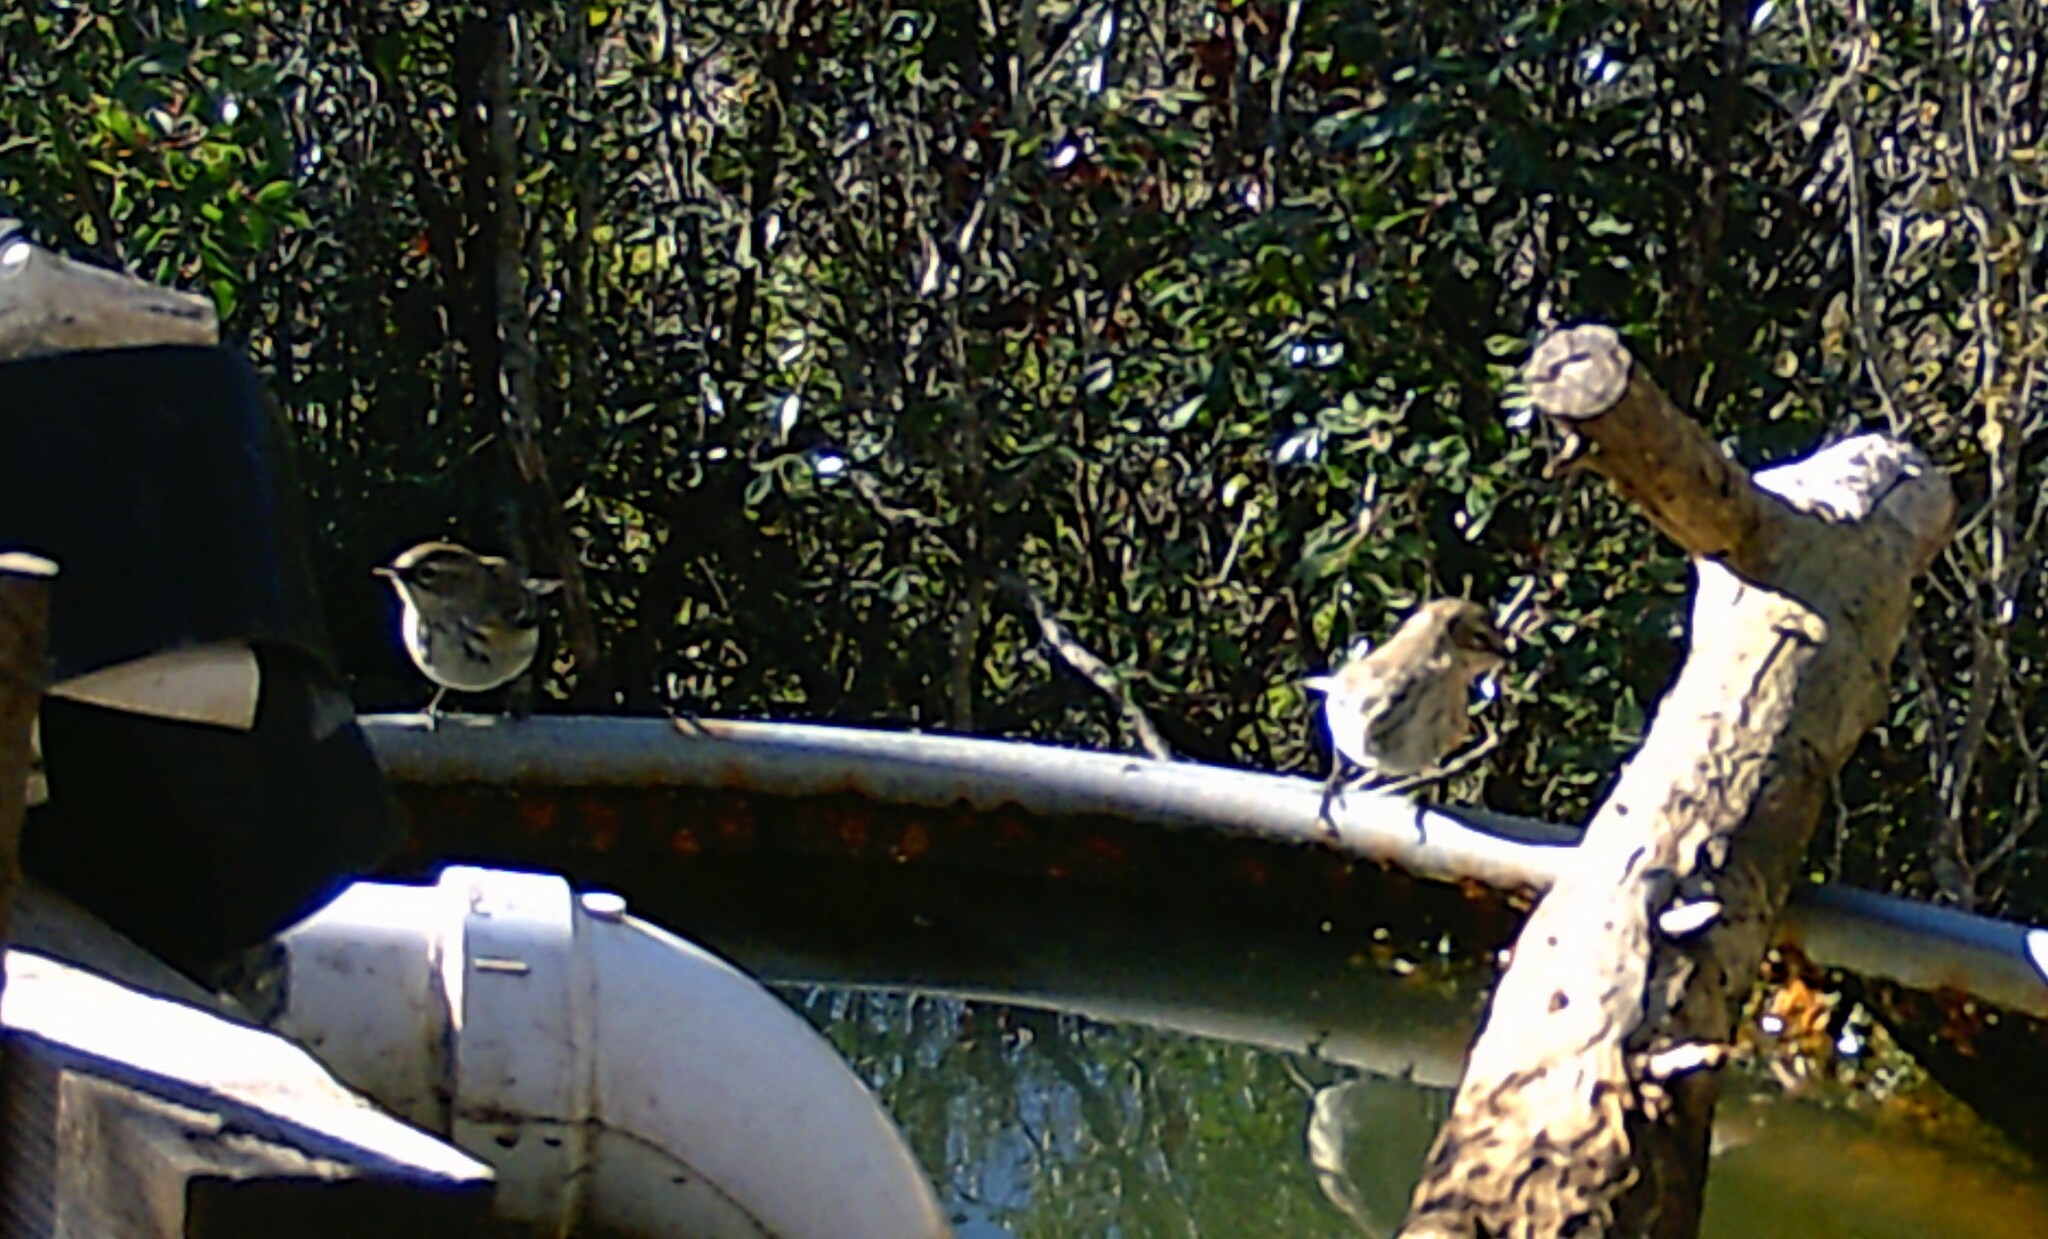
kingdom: Animalia
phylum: Chordata
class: Aves
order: Passeriformes
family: Parulidae
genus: Setophaga
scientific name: Setophaga coronata
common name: Myrtle warbler
